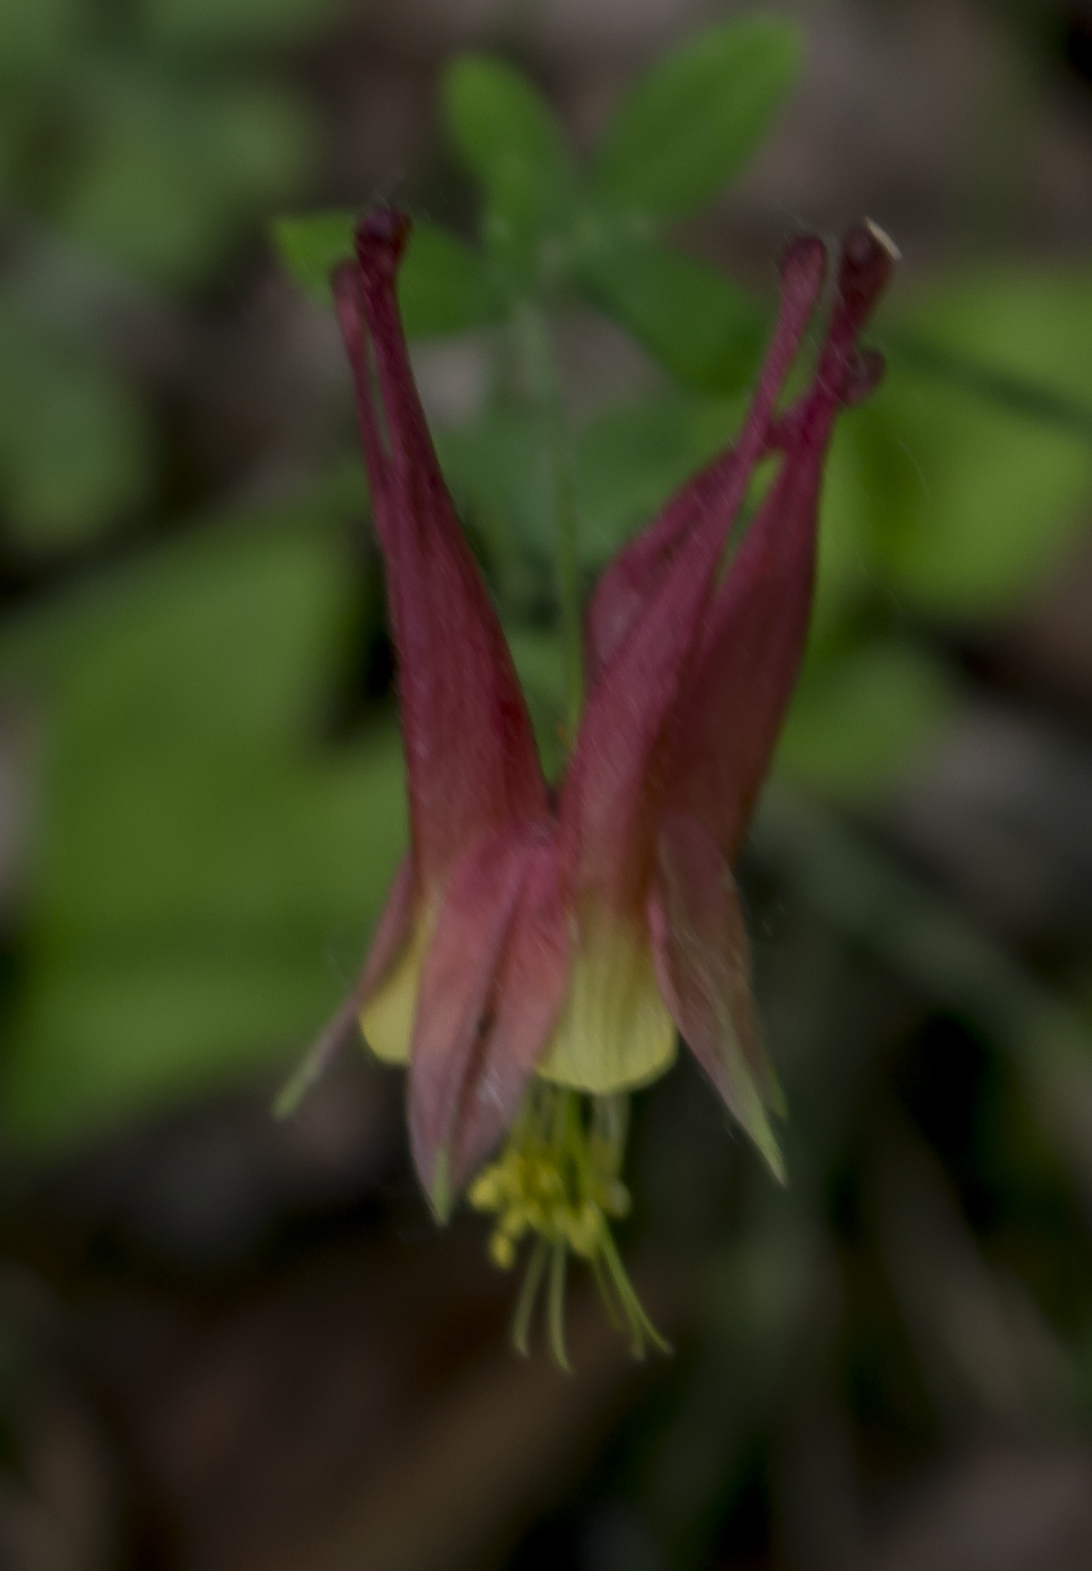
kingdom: Plantae
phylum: Tracheophyta
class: Magnoliopsida
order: Ranunculales
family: Ranunculaceae
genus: Aquilegia
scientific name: Aquilegia canadensis
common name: American columbine
